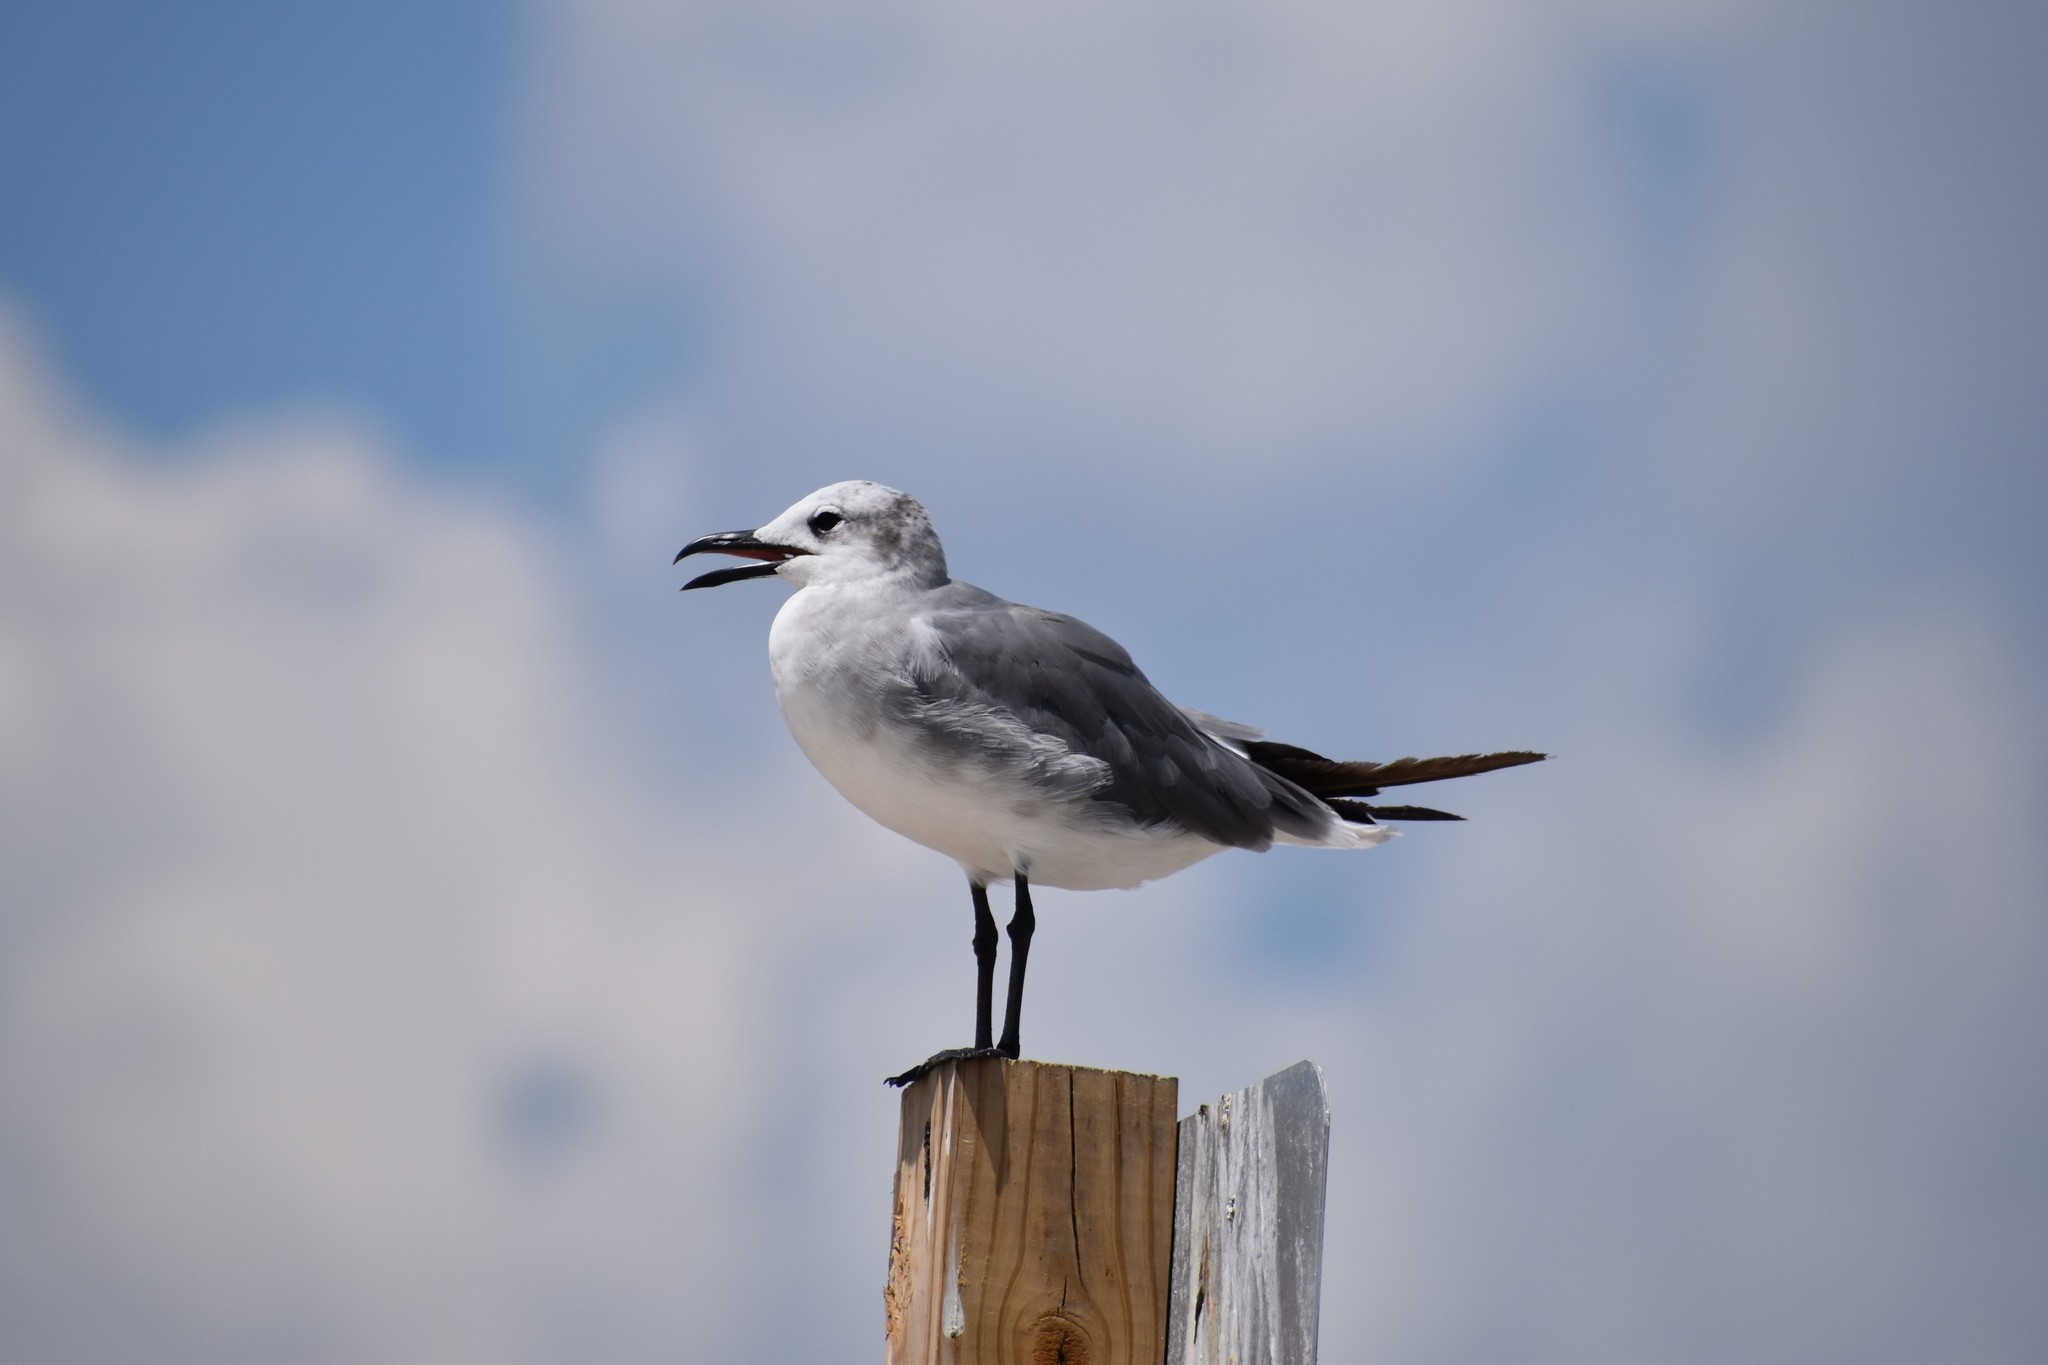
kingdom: Animalia
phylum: Chordata
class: Aves
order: Charadriiformes
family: Laridae
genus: Leucophaeus
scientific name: Leucophaeus atricilla
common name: Laughing gull
